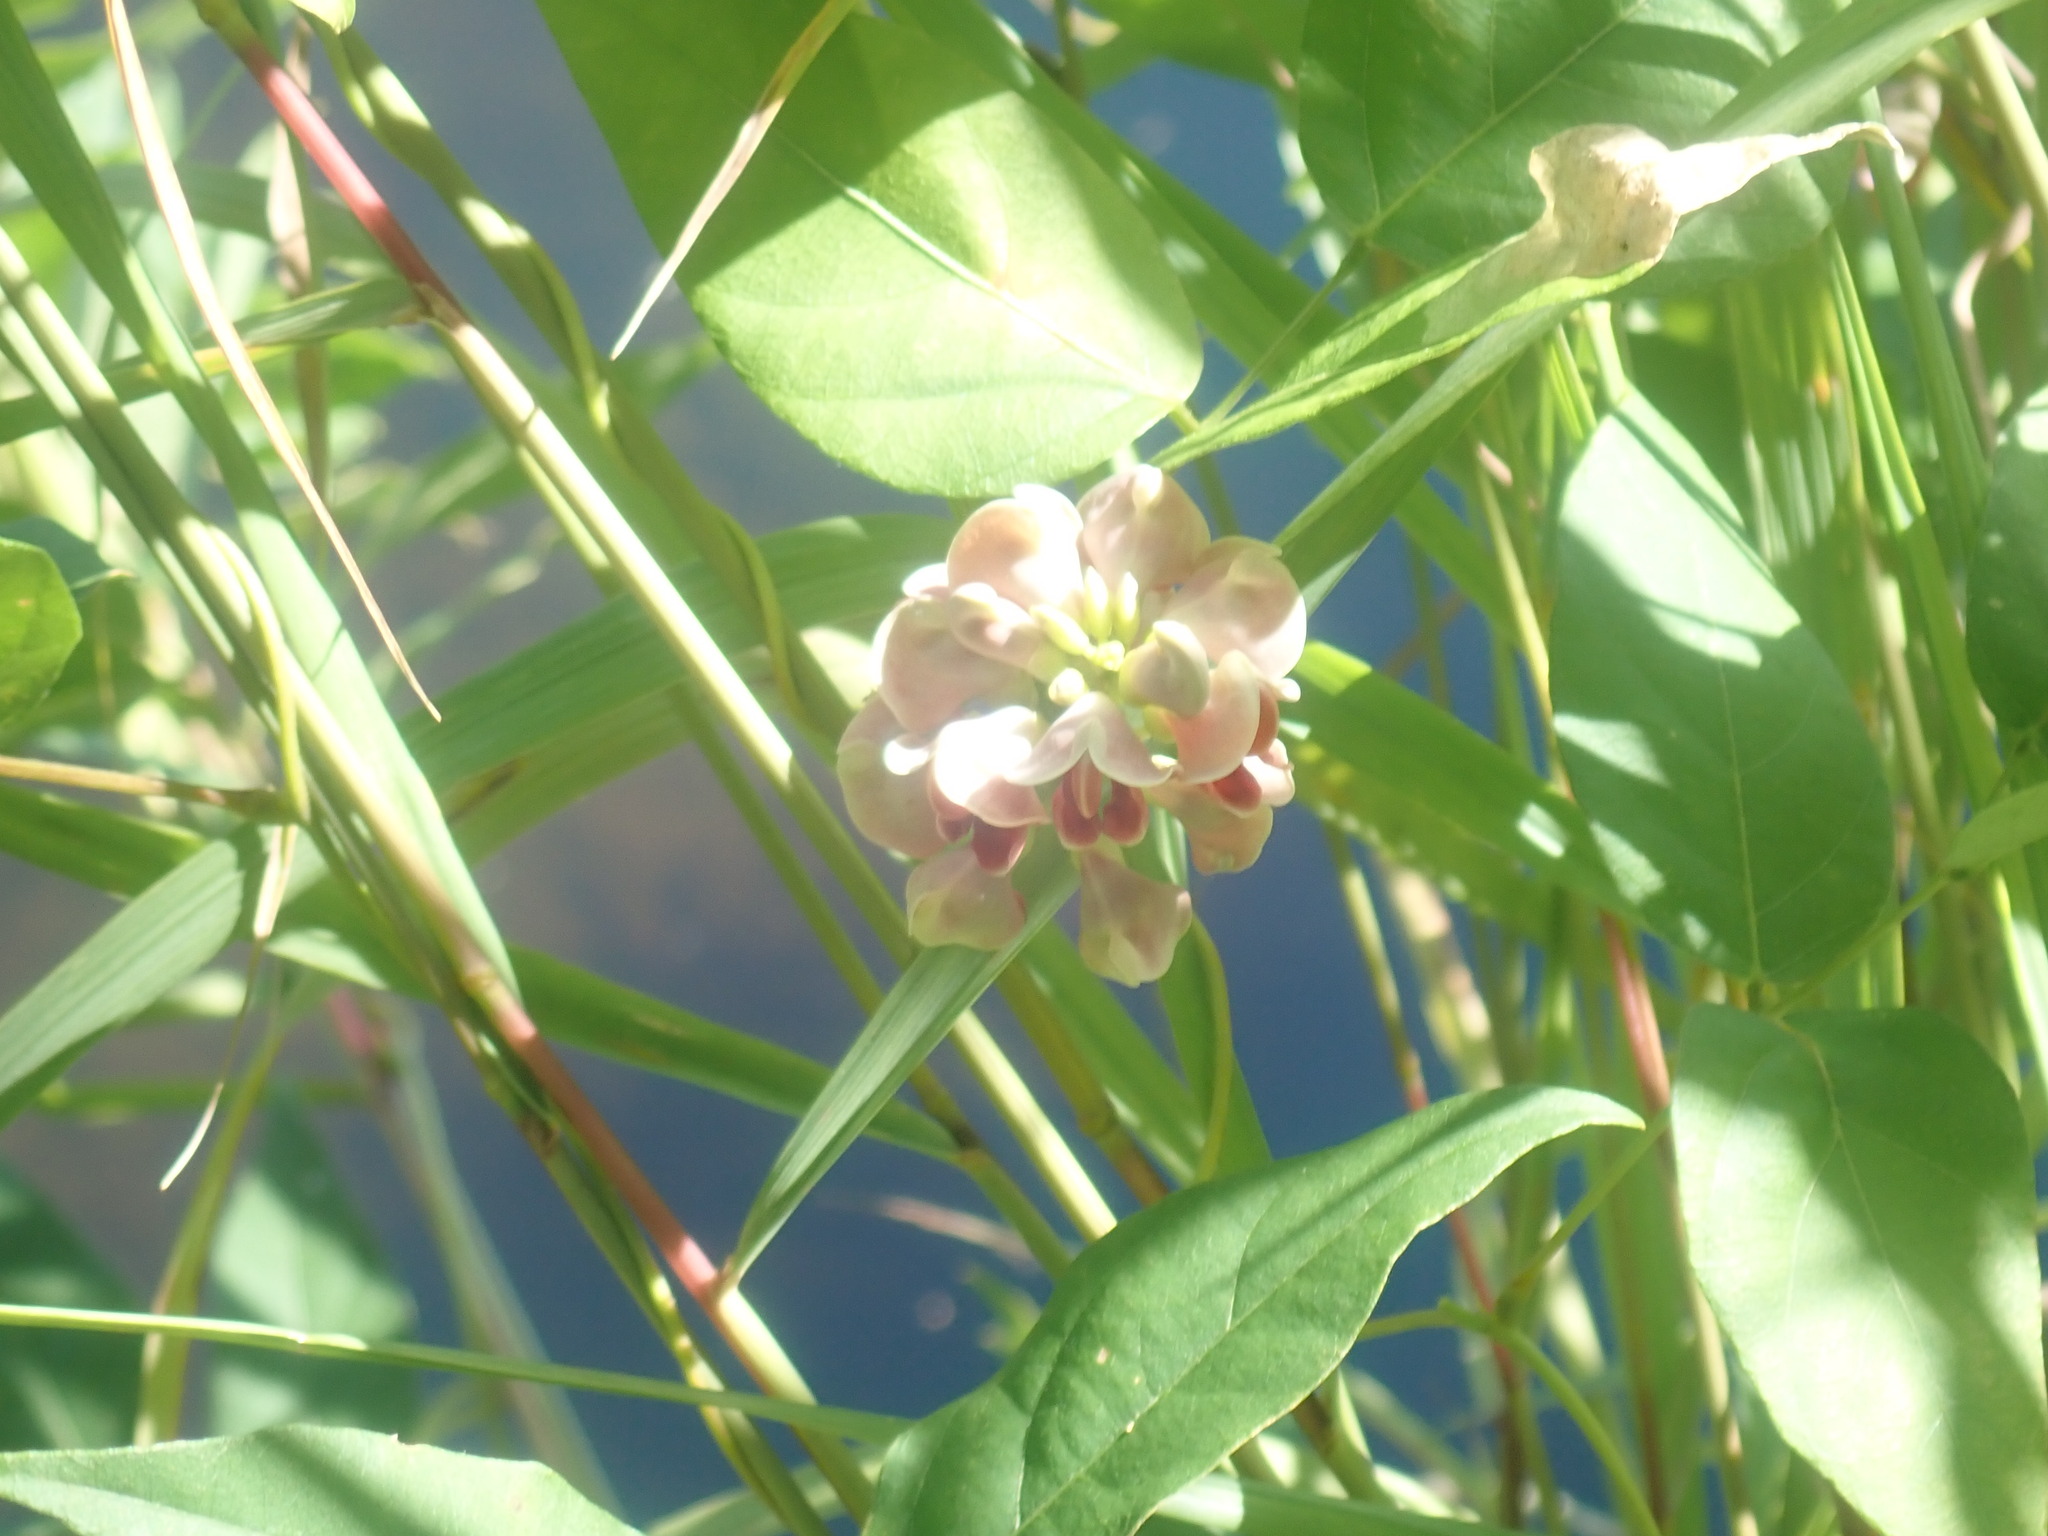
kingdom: Plantae
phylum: Tracheophyta
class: Magnoliopsida
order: Fabales
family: Fabaceae
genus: Apios
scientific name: Apios americana
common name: American potato-bean
